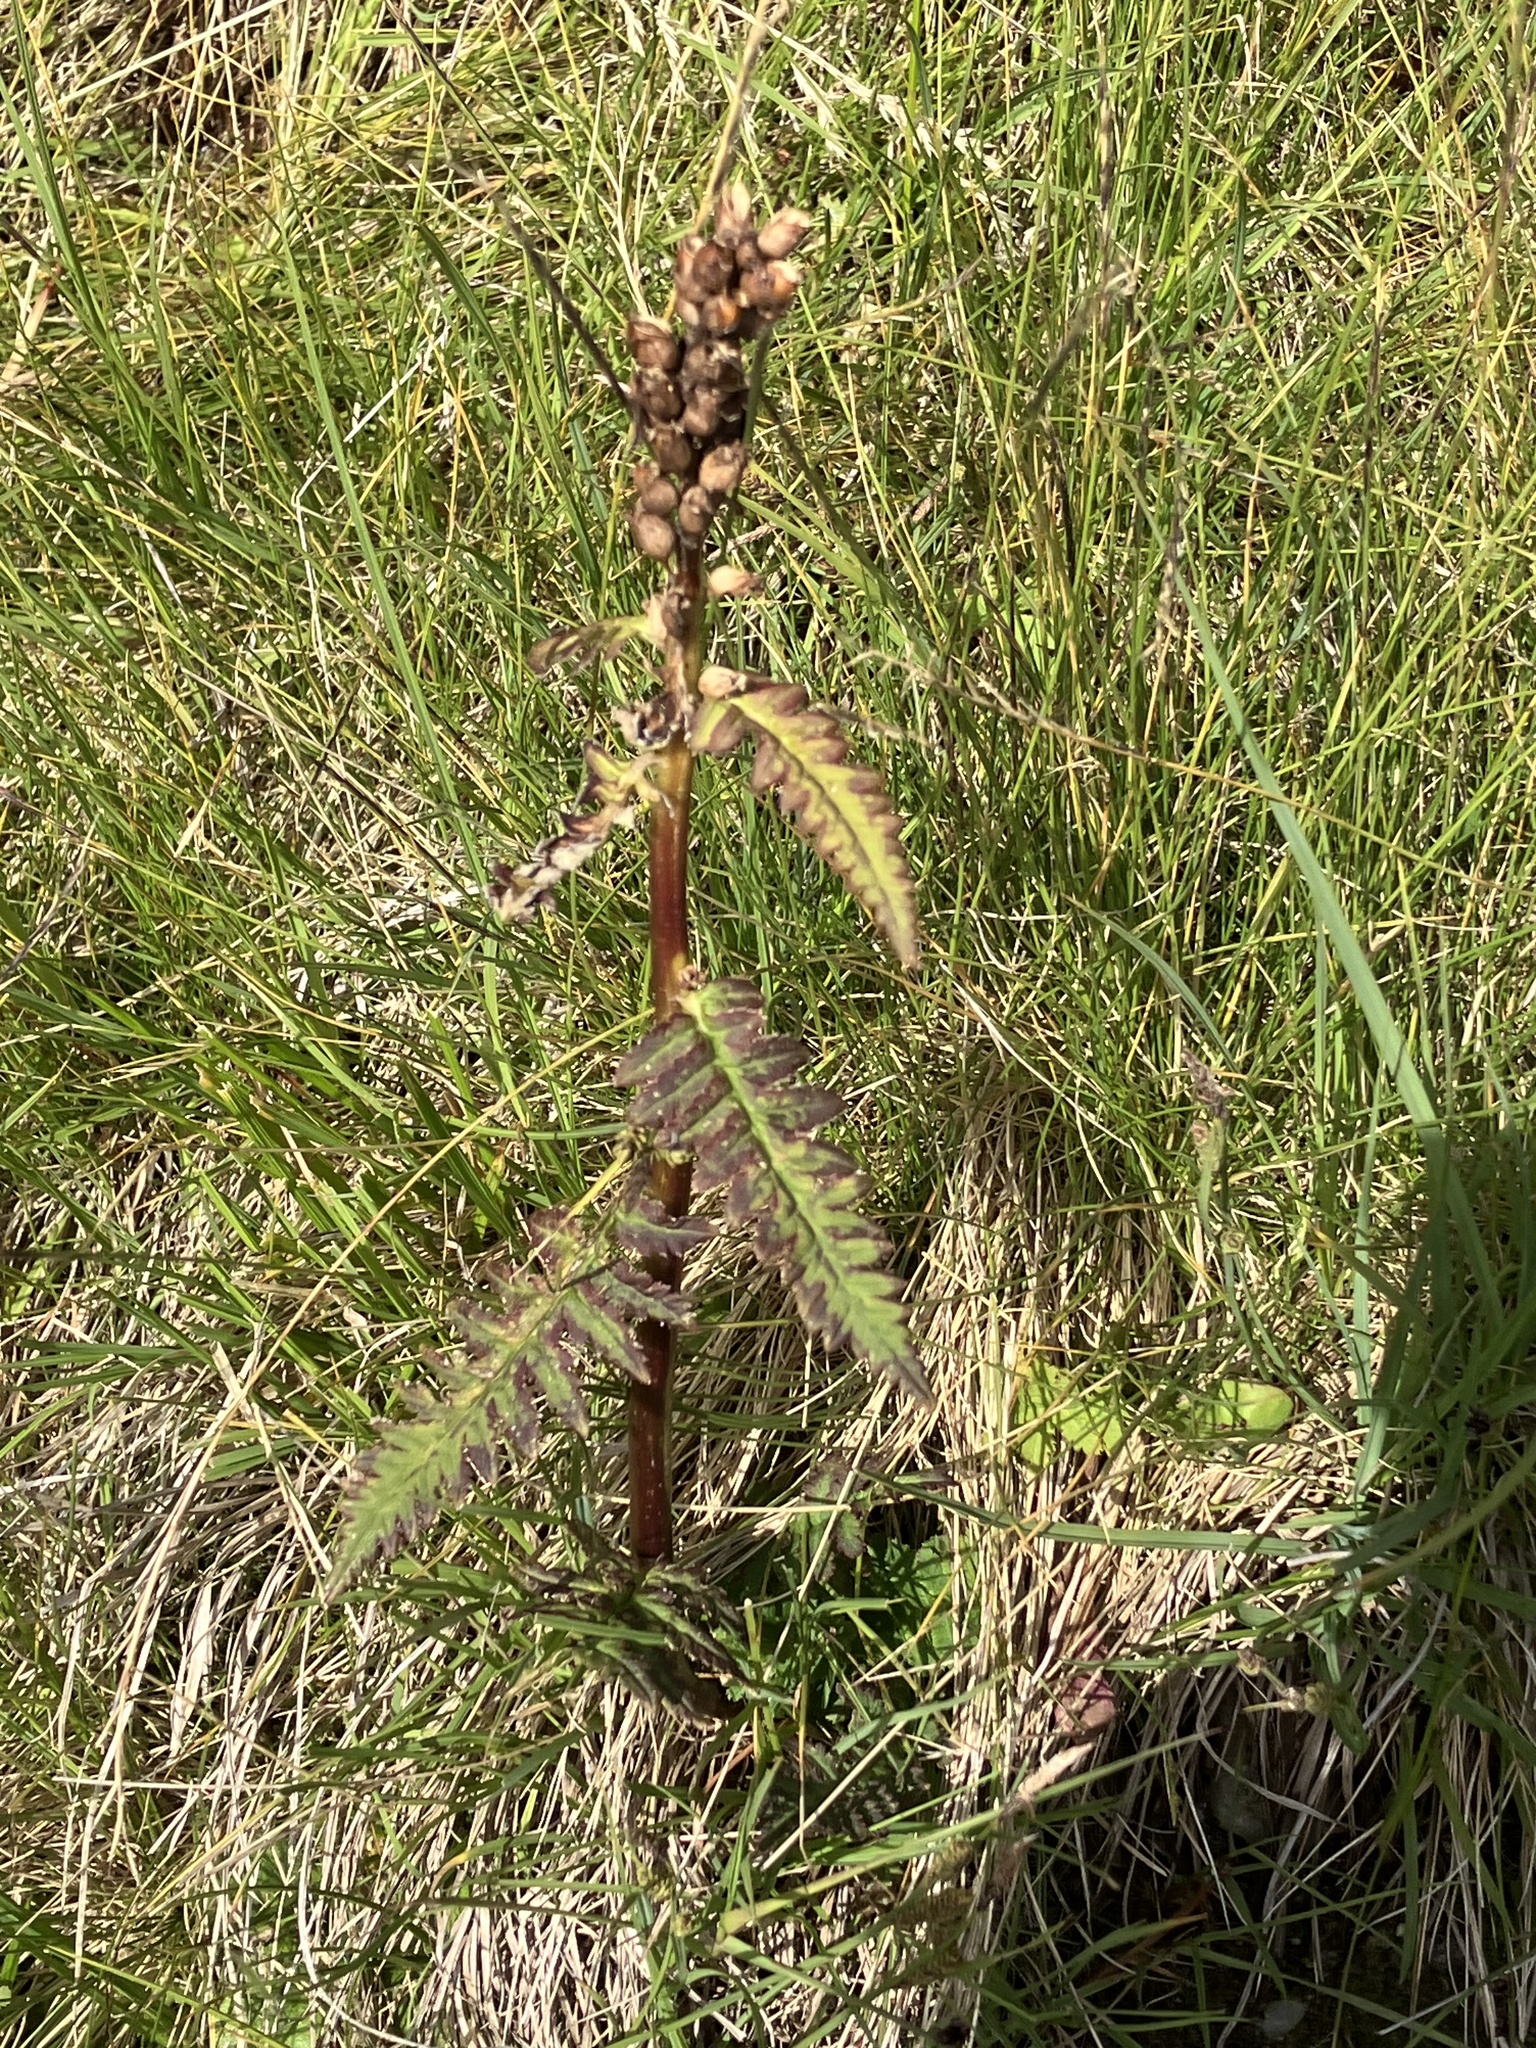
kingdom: Plantae
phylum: Tracheophyta
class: Magnoliopsida
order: Lamiales
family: Orobanchaceae
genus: Pedicularis
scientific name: Pedicularis recutita
